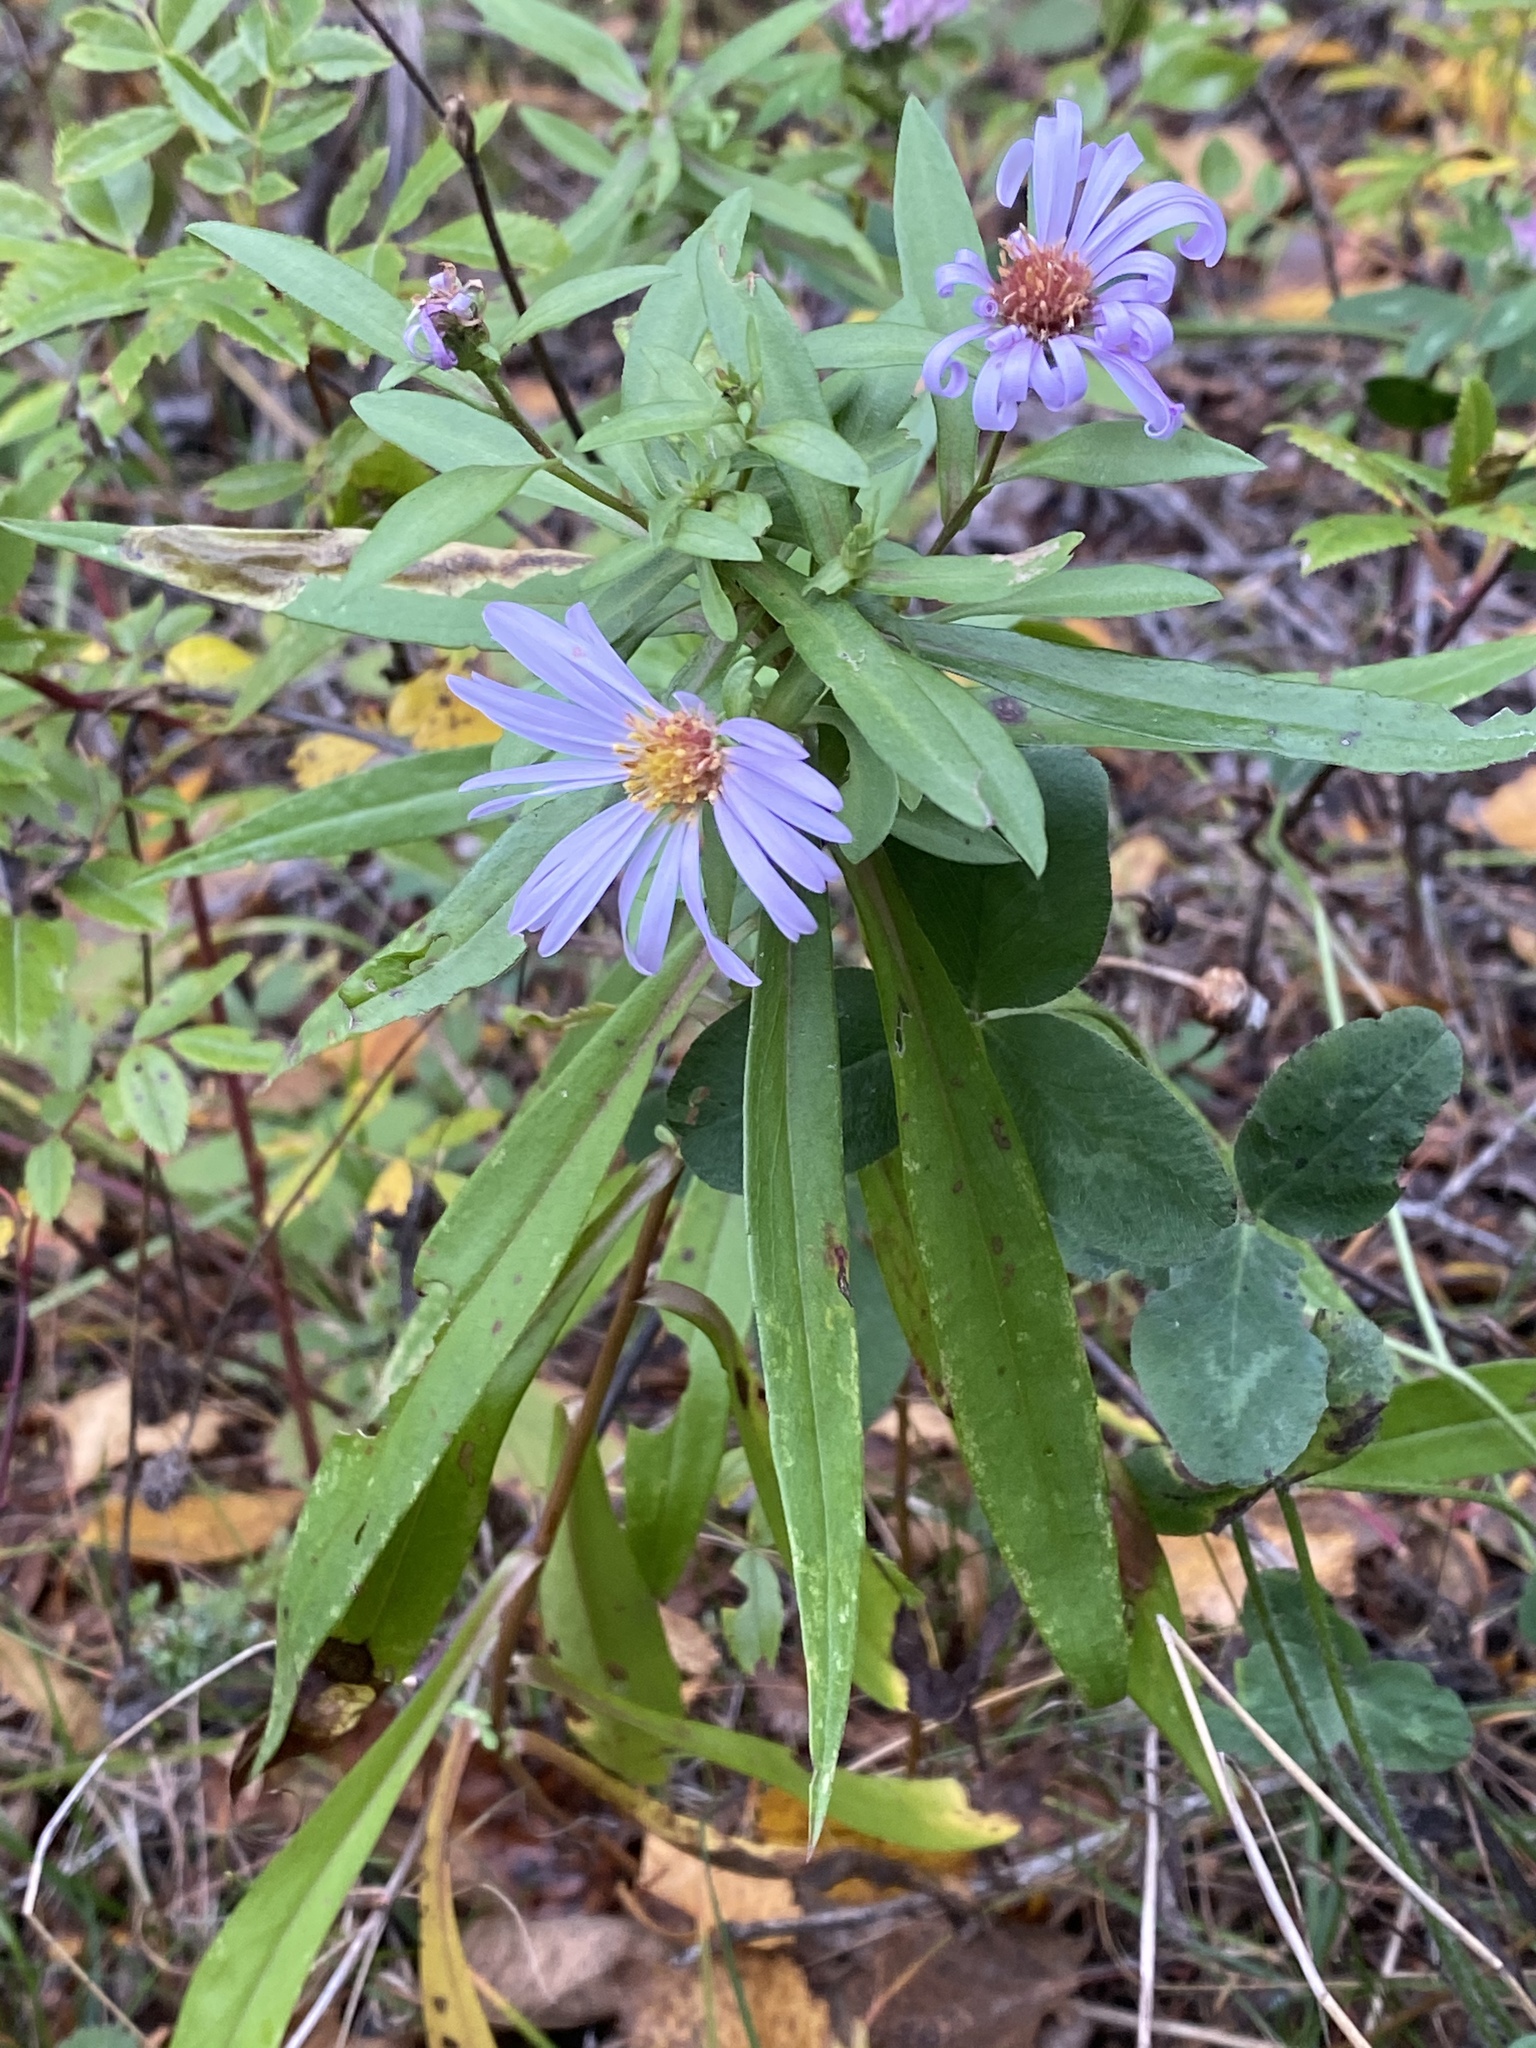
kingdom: Plantae
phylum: Tracheophyta
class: Magnoliopsida
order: Asterales
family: Asteraceae
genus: Symphyotrichum
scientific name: Symphyotrichum novi-belgii
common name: Michaelmas daisy
